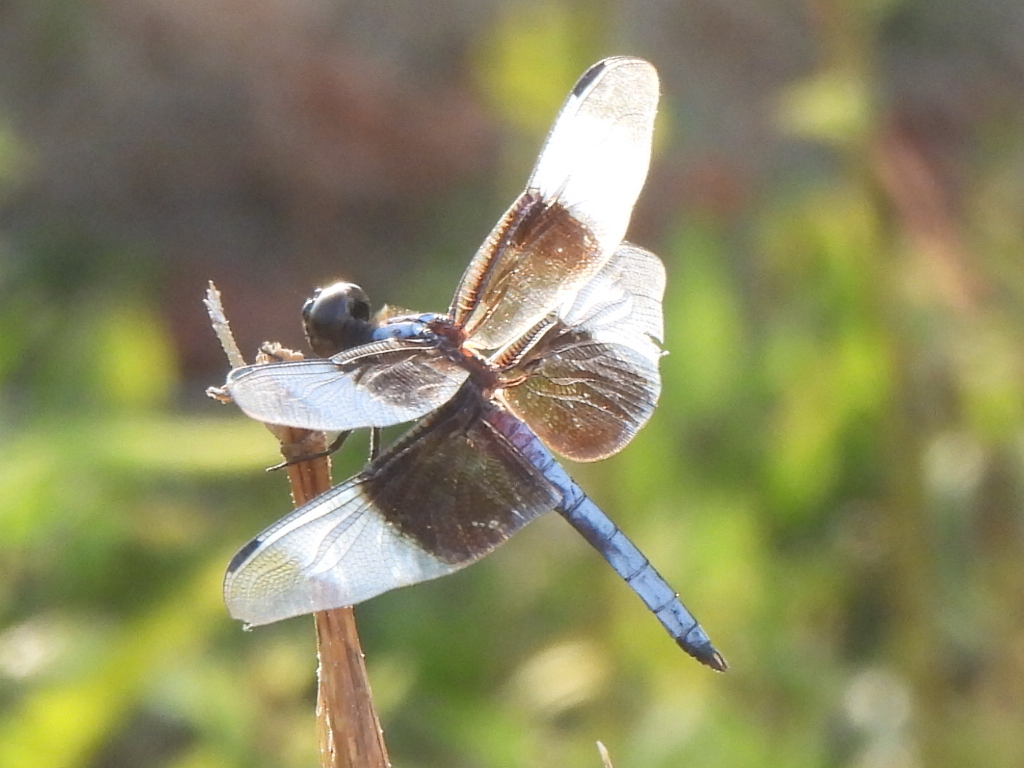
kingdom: Animalia
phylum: Arthropoda
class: Insecta
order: Odonata
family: Libellulidae
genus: Libellula
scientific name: Libellula luctuosa
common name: Widow skimmer
